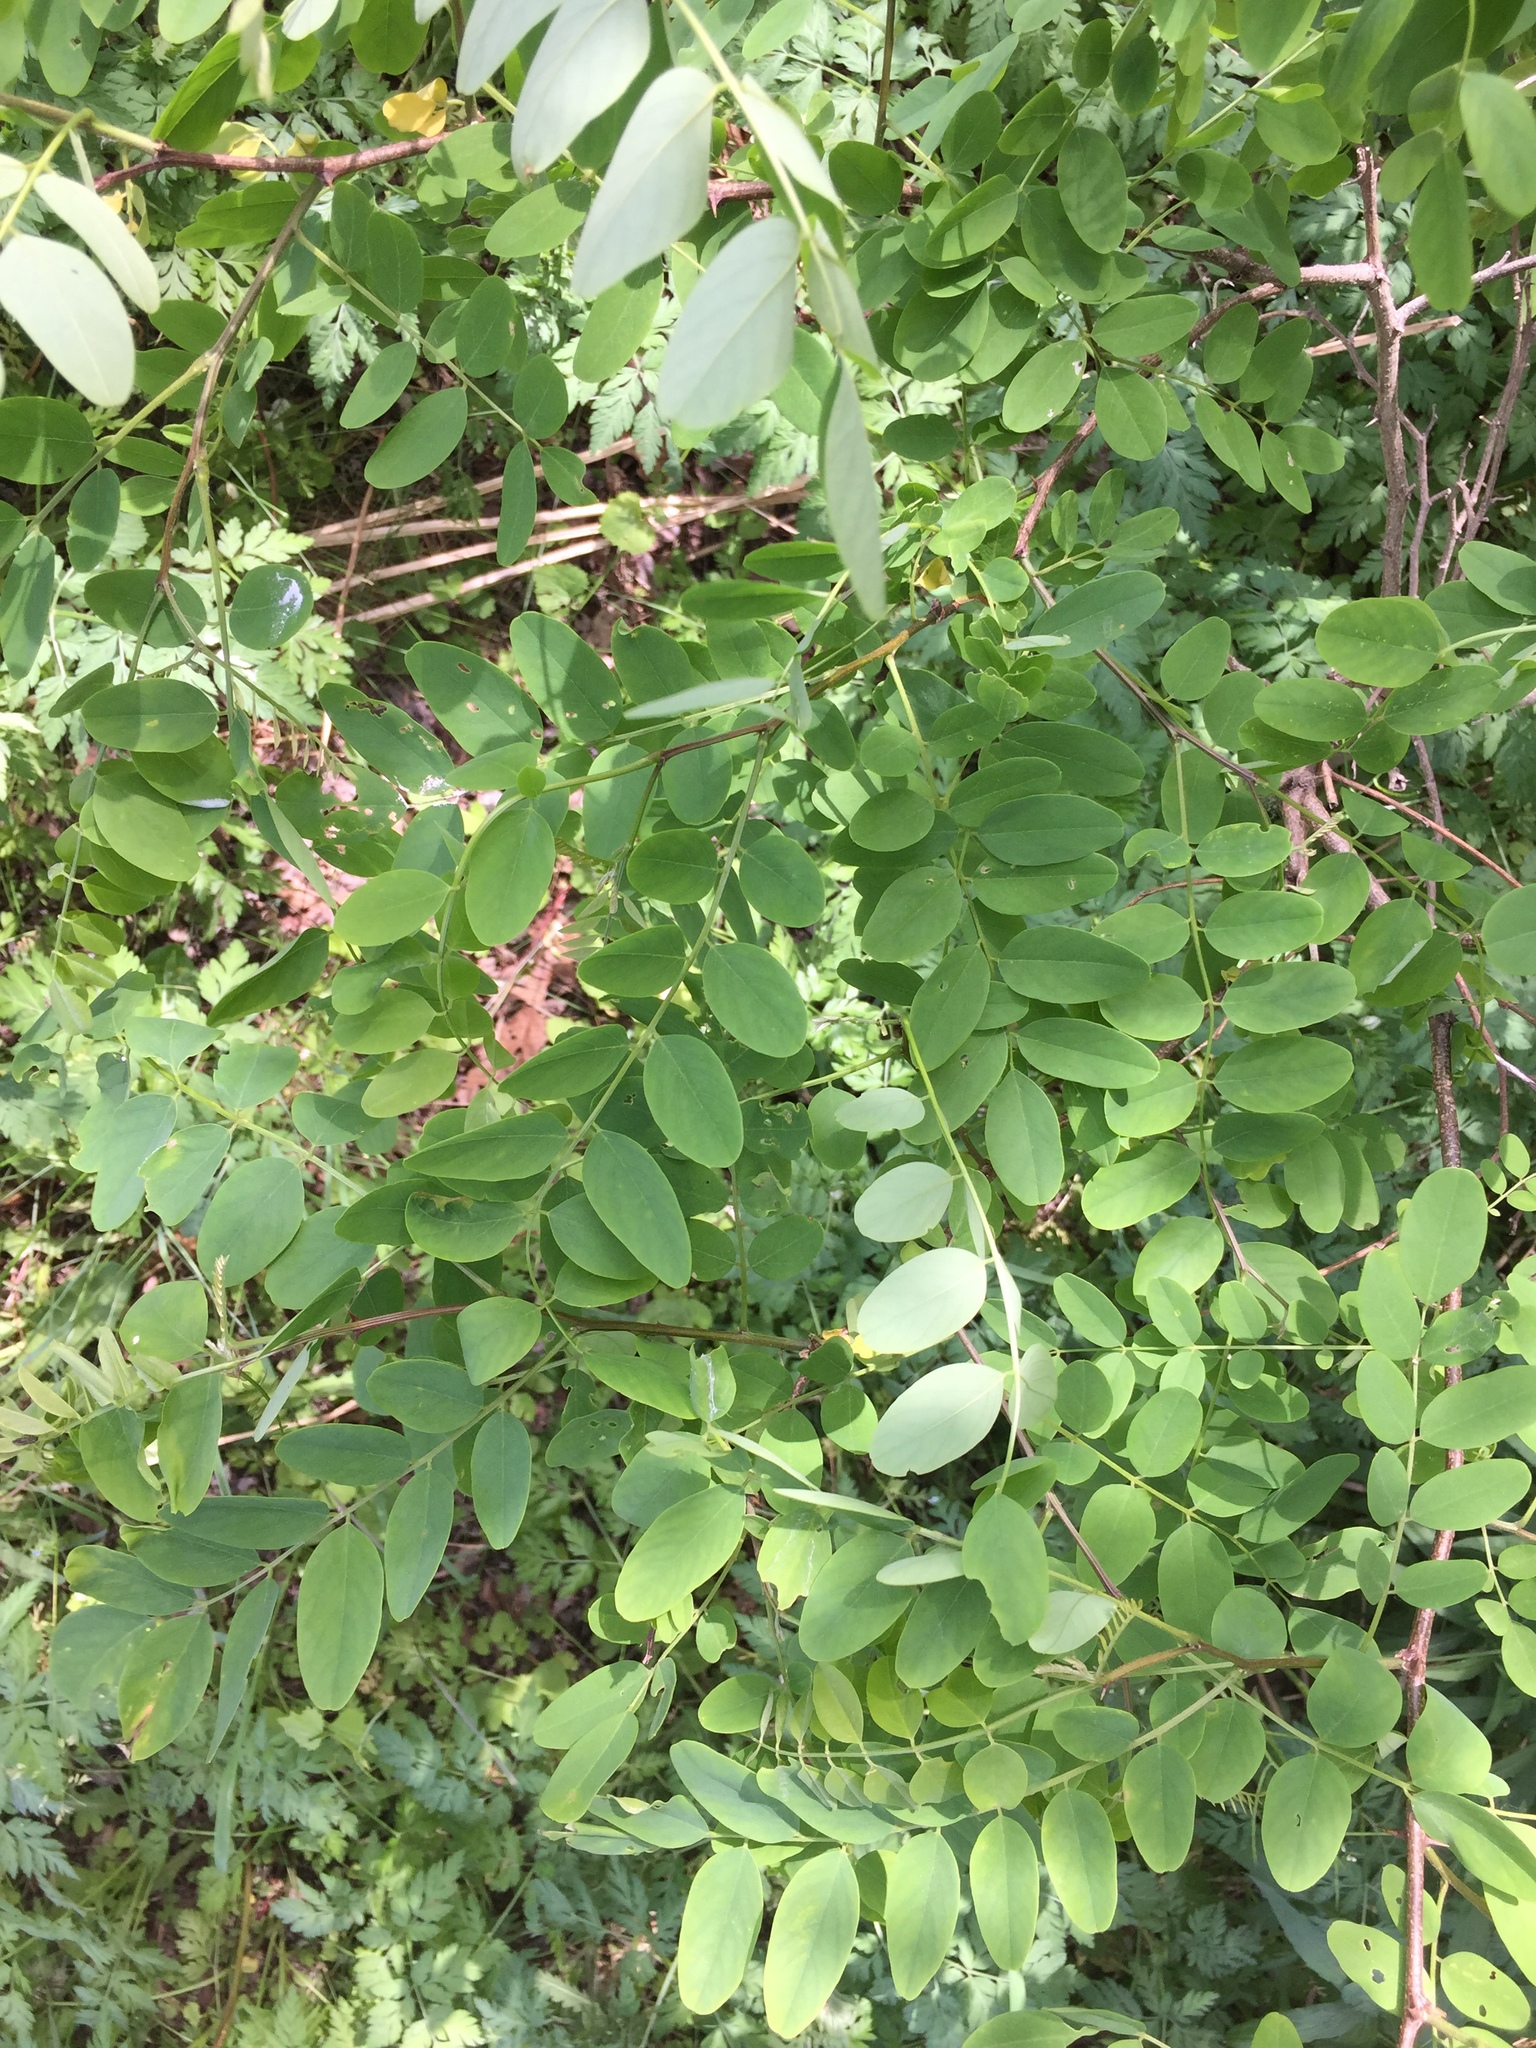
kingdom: Plantae
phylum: Tracheophyta
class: Magnoliopsida
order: Fabales
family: Fabaceae
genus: Robinia
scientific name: Robinia pseudoacacia
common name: Black locust
